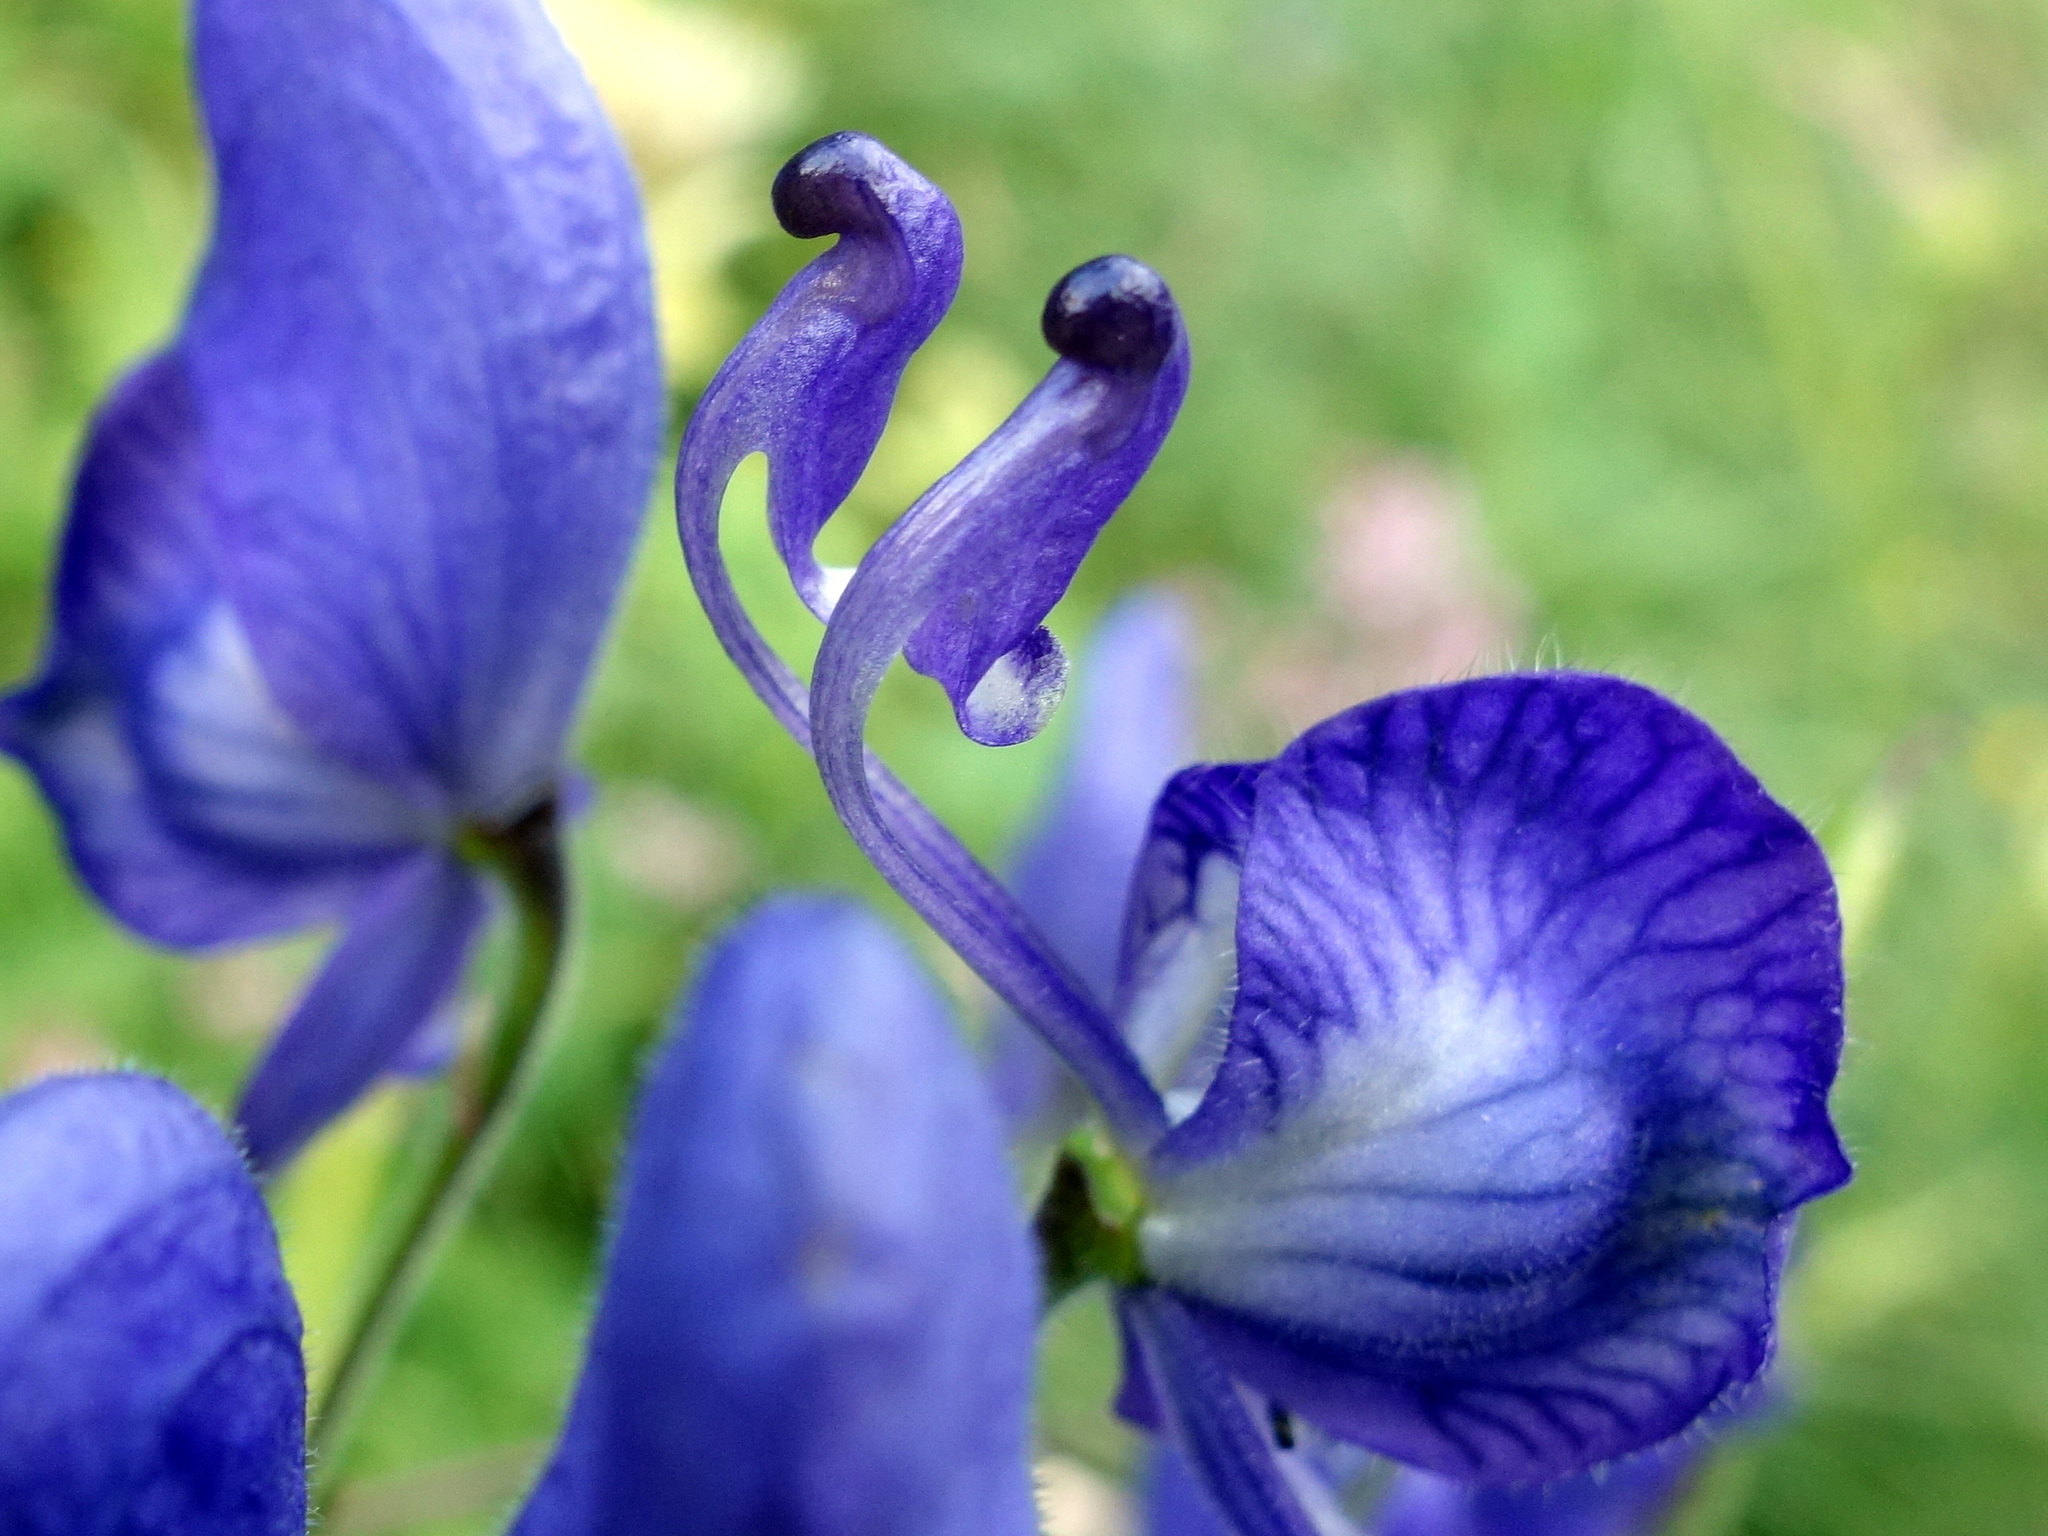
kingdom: Plantae
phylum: Tracheophyta
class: Magnoliopsida
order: Ranunculales
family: Ranunculaceae
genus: Aconitum
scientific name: Aconitum degenii
